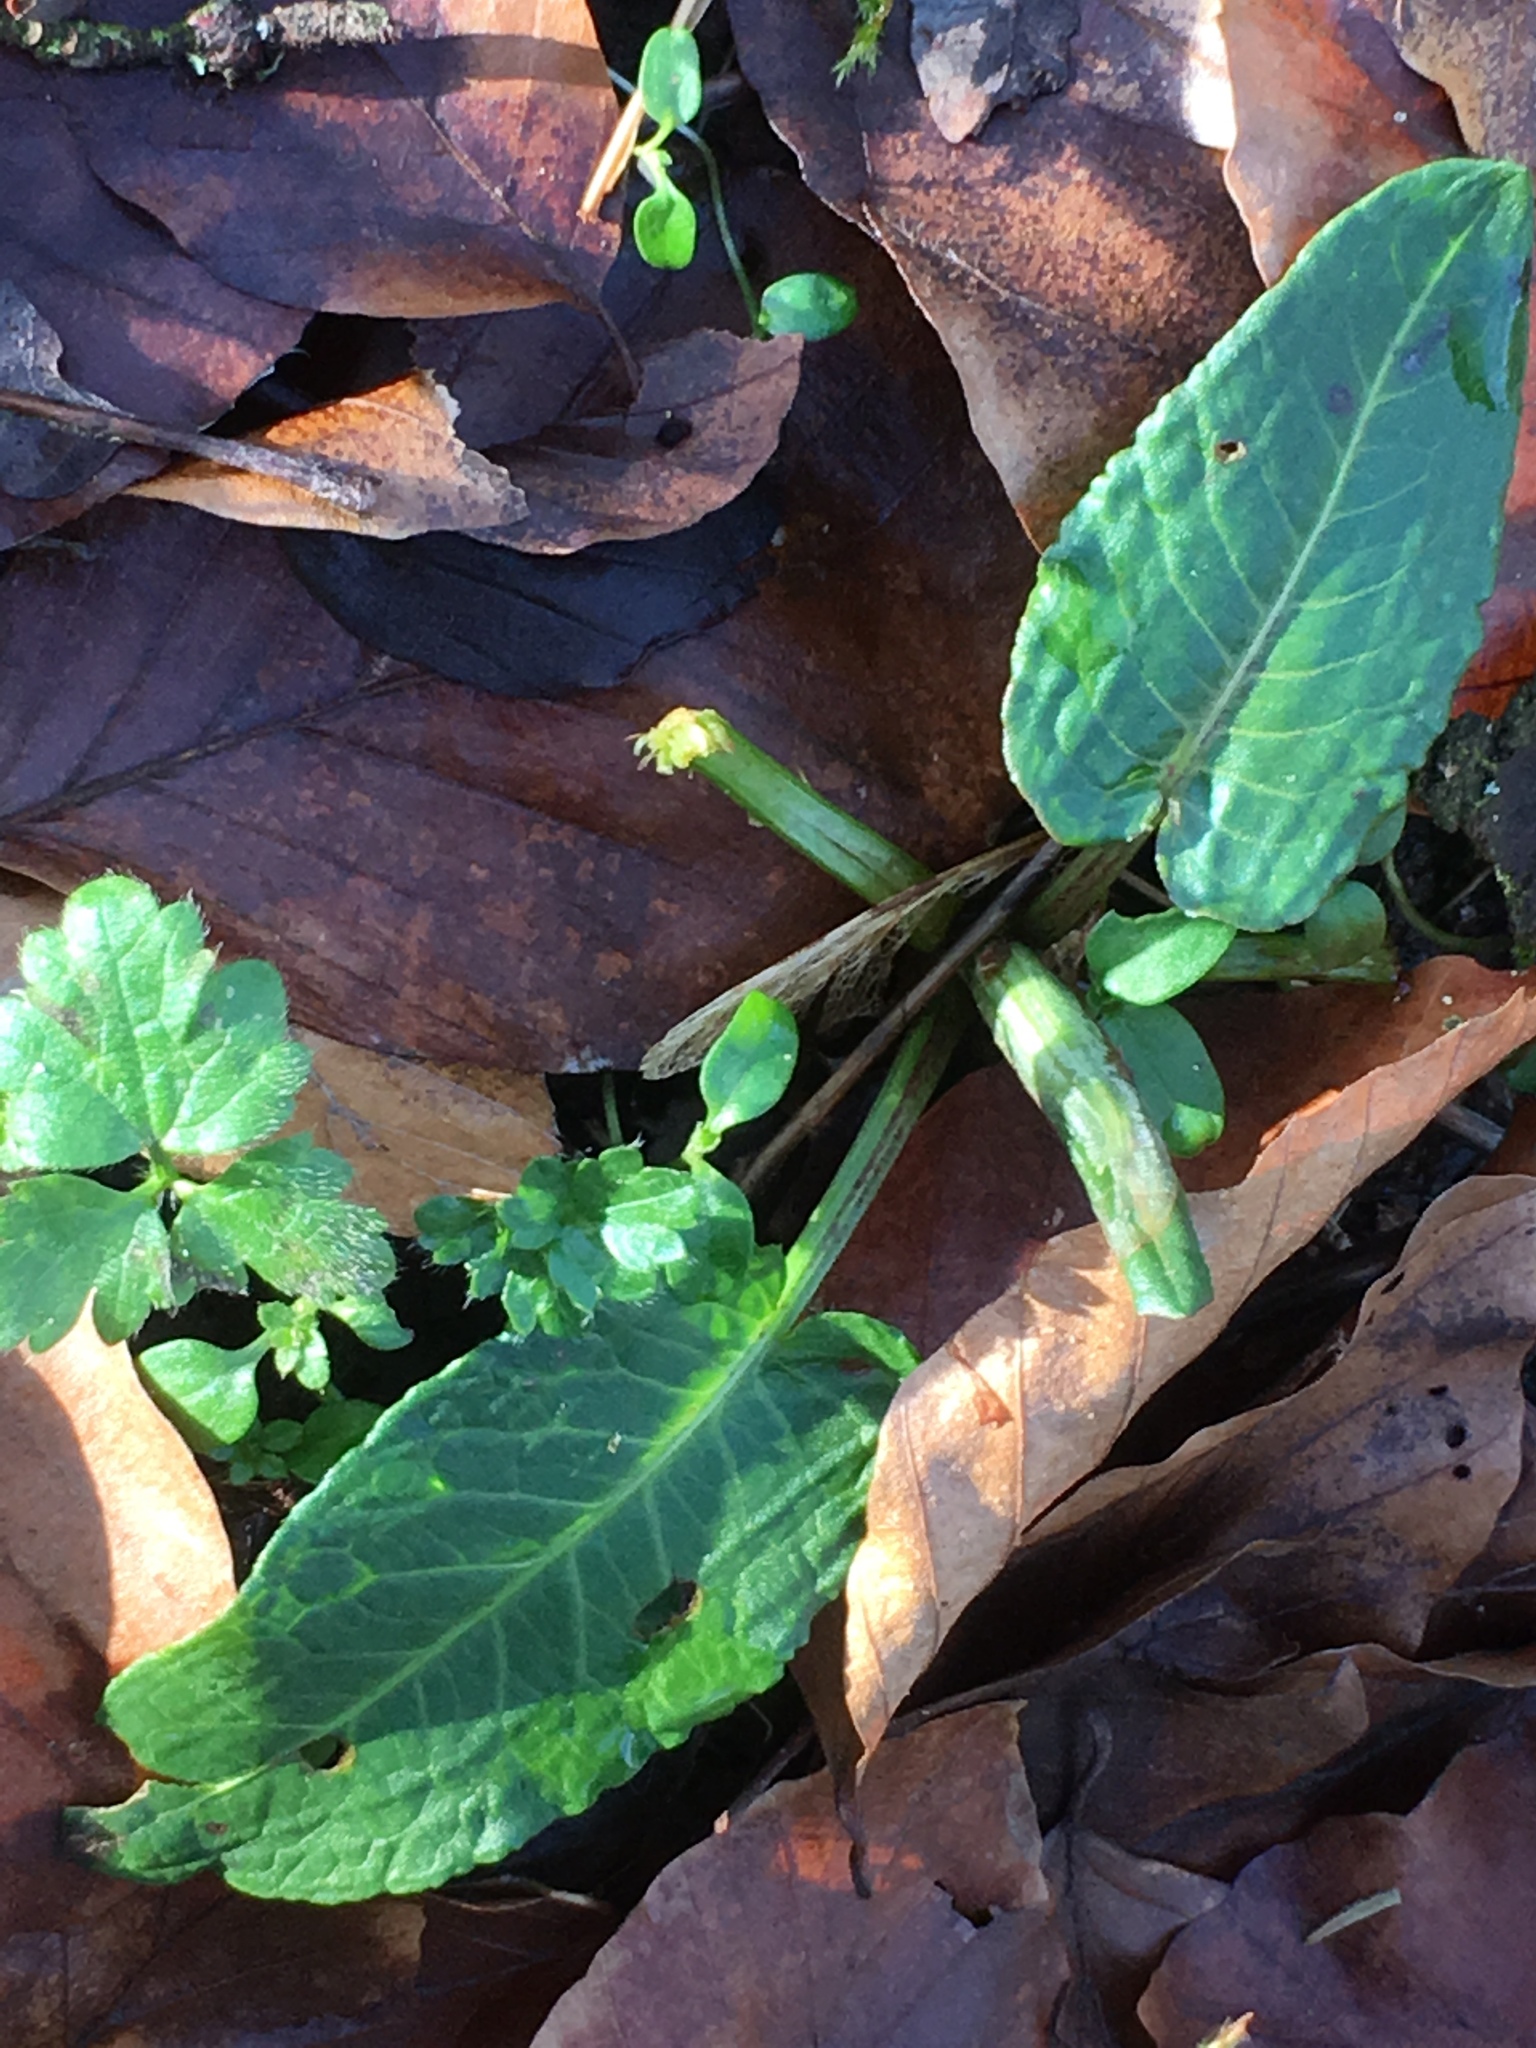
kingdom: Plantae
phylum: Tracheophyta
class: Magnoliopsida
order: Caryophyllales
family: Polygonaceae
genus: Rumex
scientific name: Rumex obtusifolius
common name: Bitter dock
